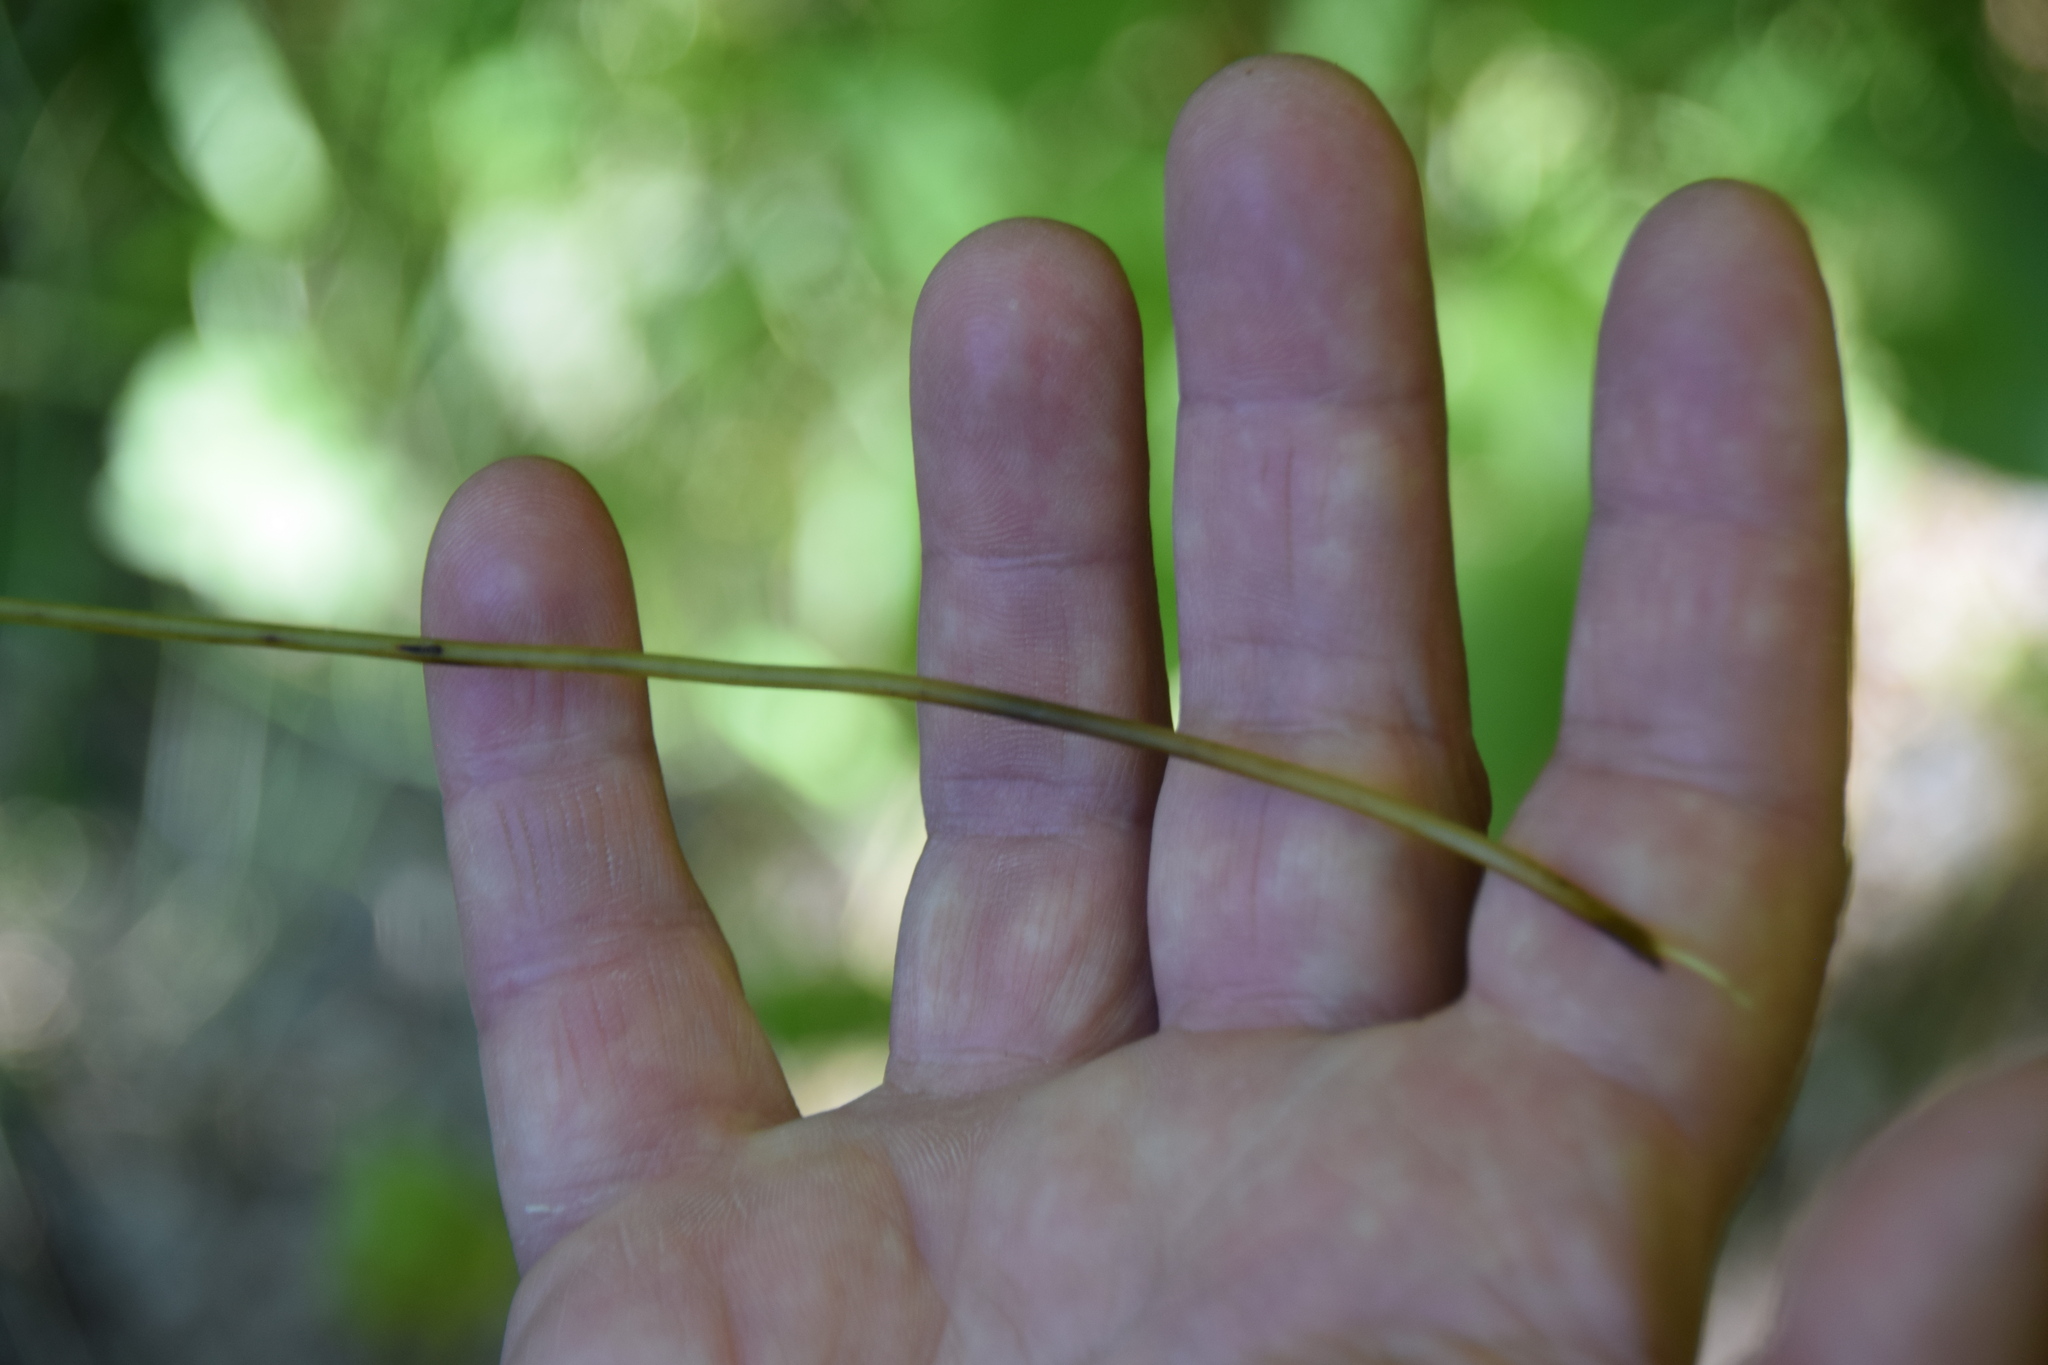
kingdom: Plantae
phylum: Tracheophyta
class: Polypodiopsida
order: Polypodiales
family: Cystopteridaceae
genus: Cystopteris
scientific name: Cystopteris bulbifera
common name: Bulblet bladder fern
